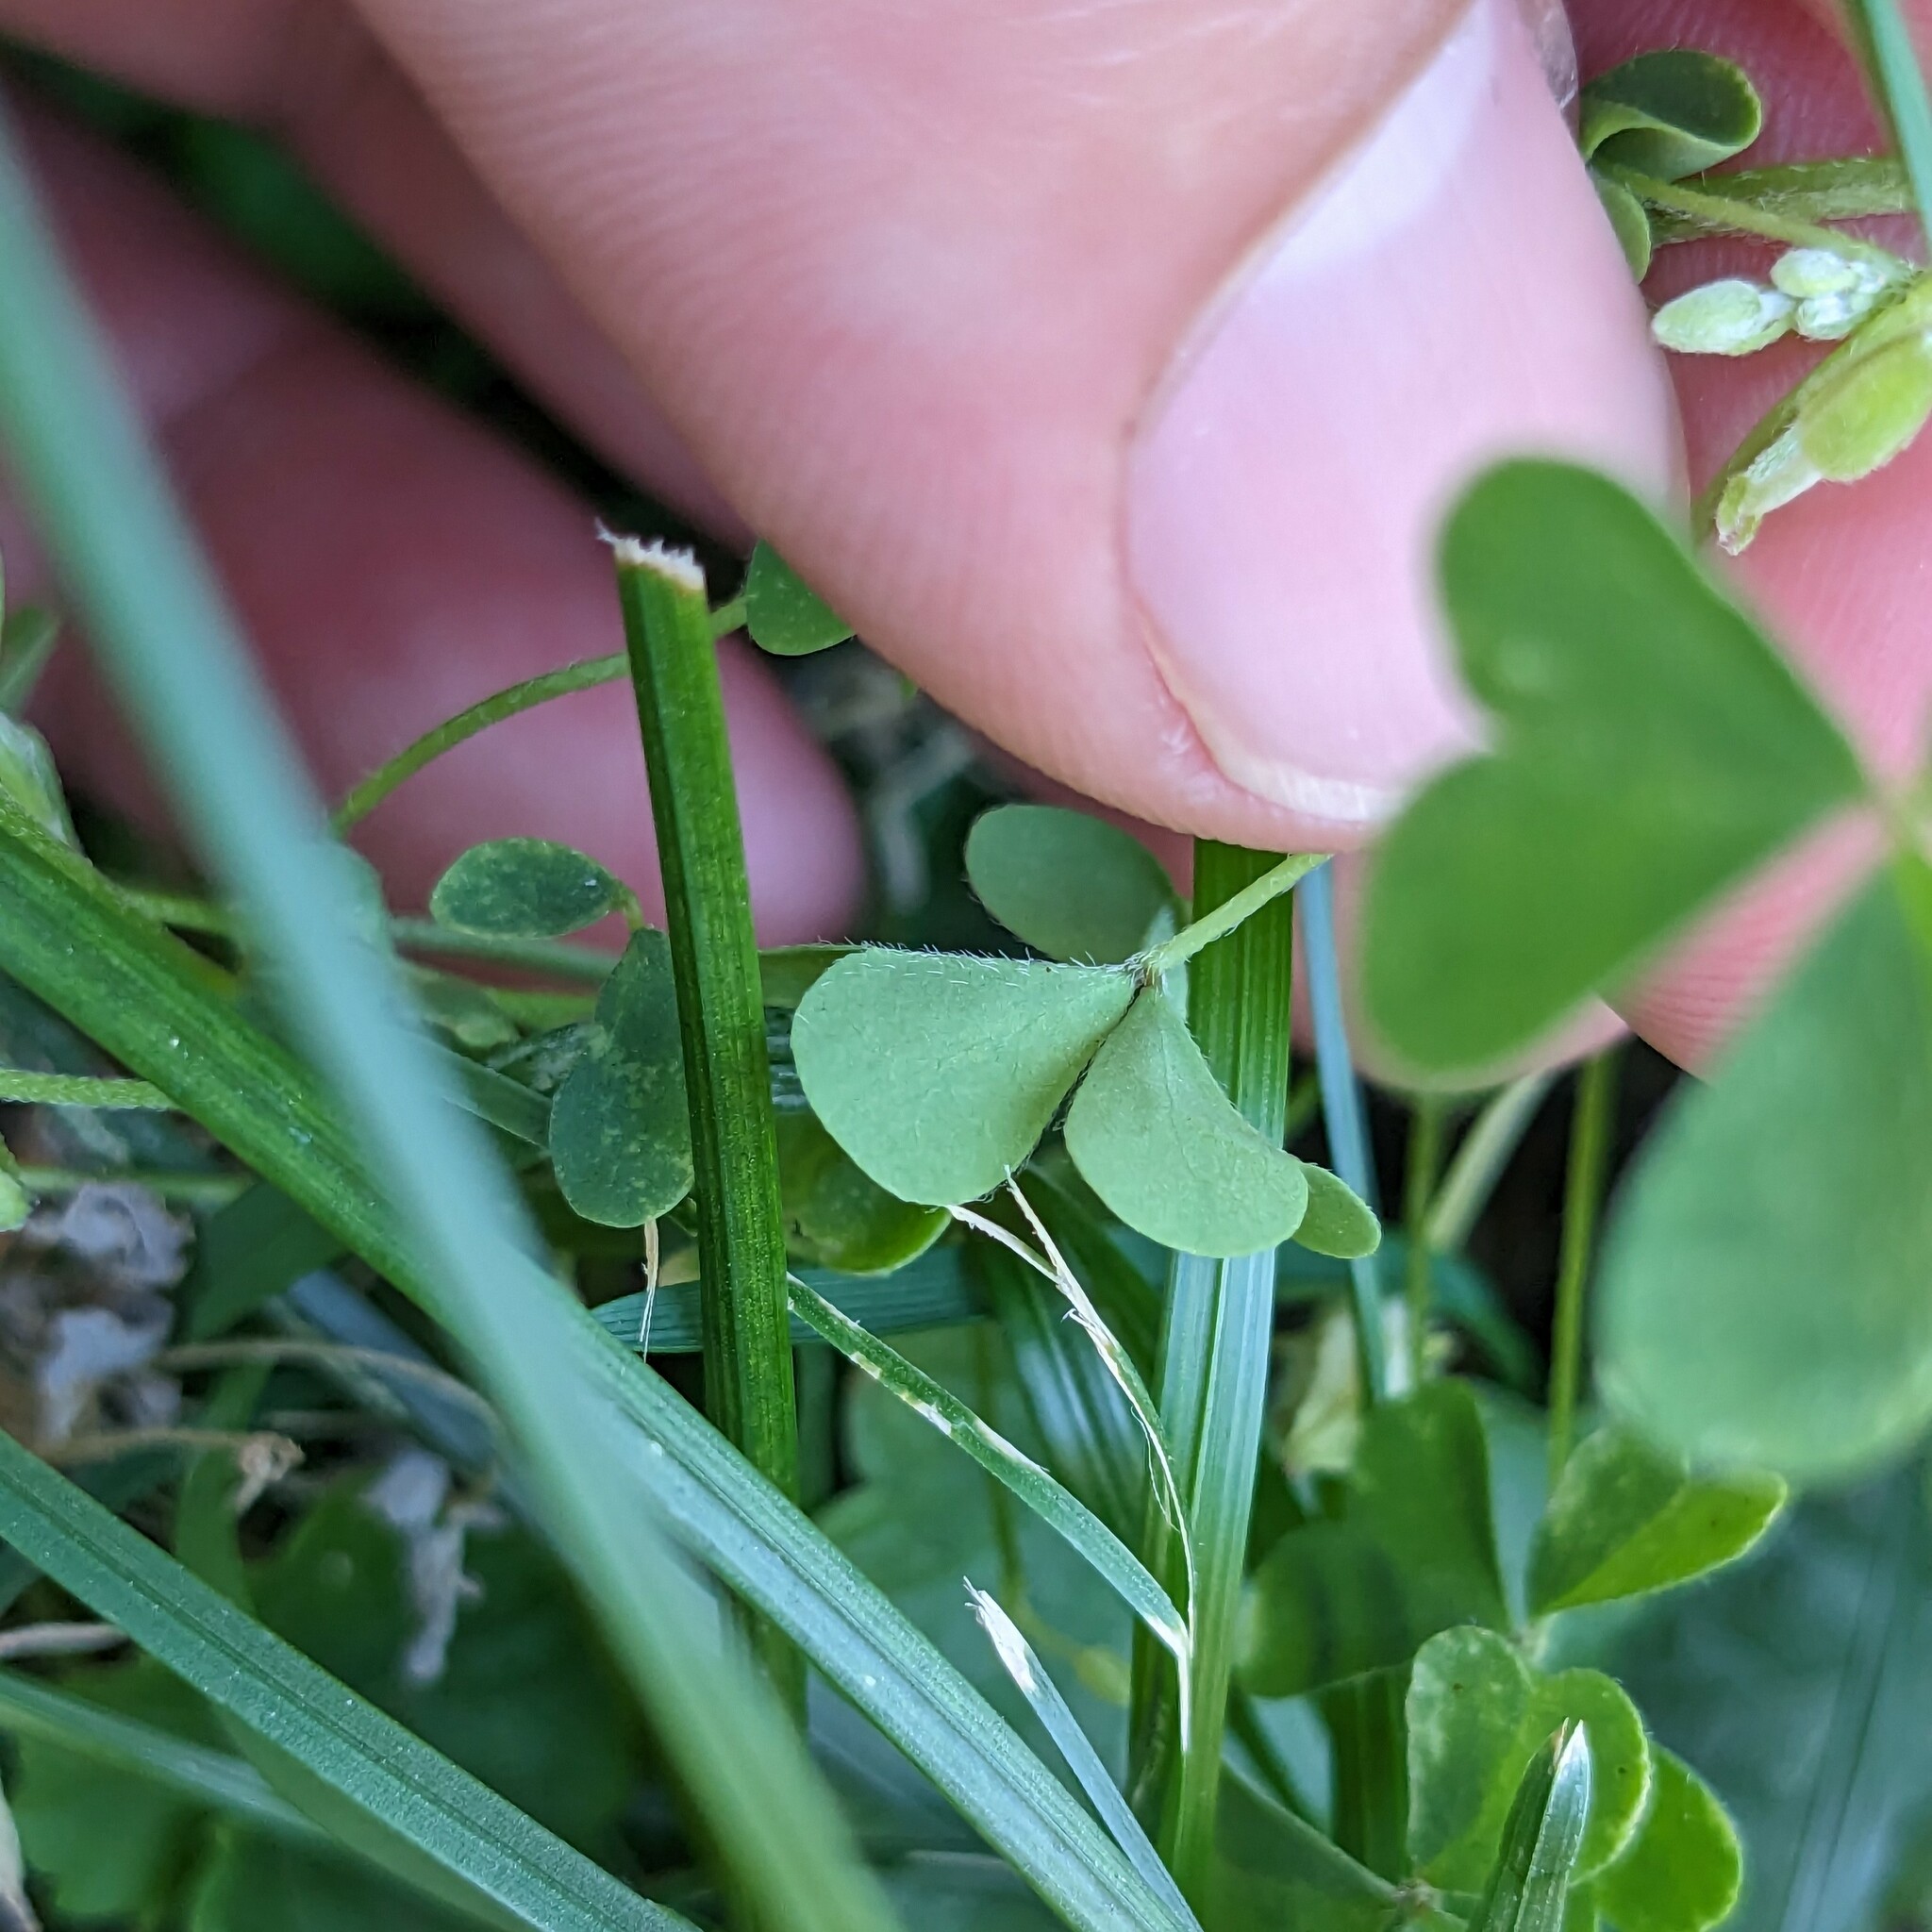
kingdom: Plantae
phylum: Tracheophyta
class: Magnoliopsida
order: Oxalidales
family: Oxalidaceae
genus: Oxalis
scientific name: Oxalis dillenii
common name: Sussex yellow-sorrel
